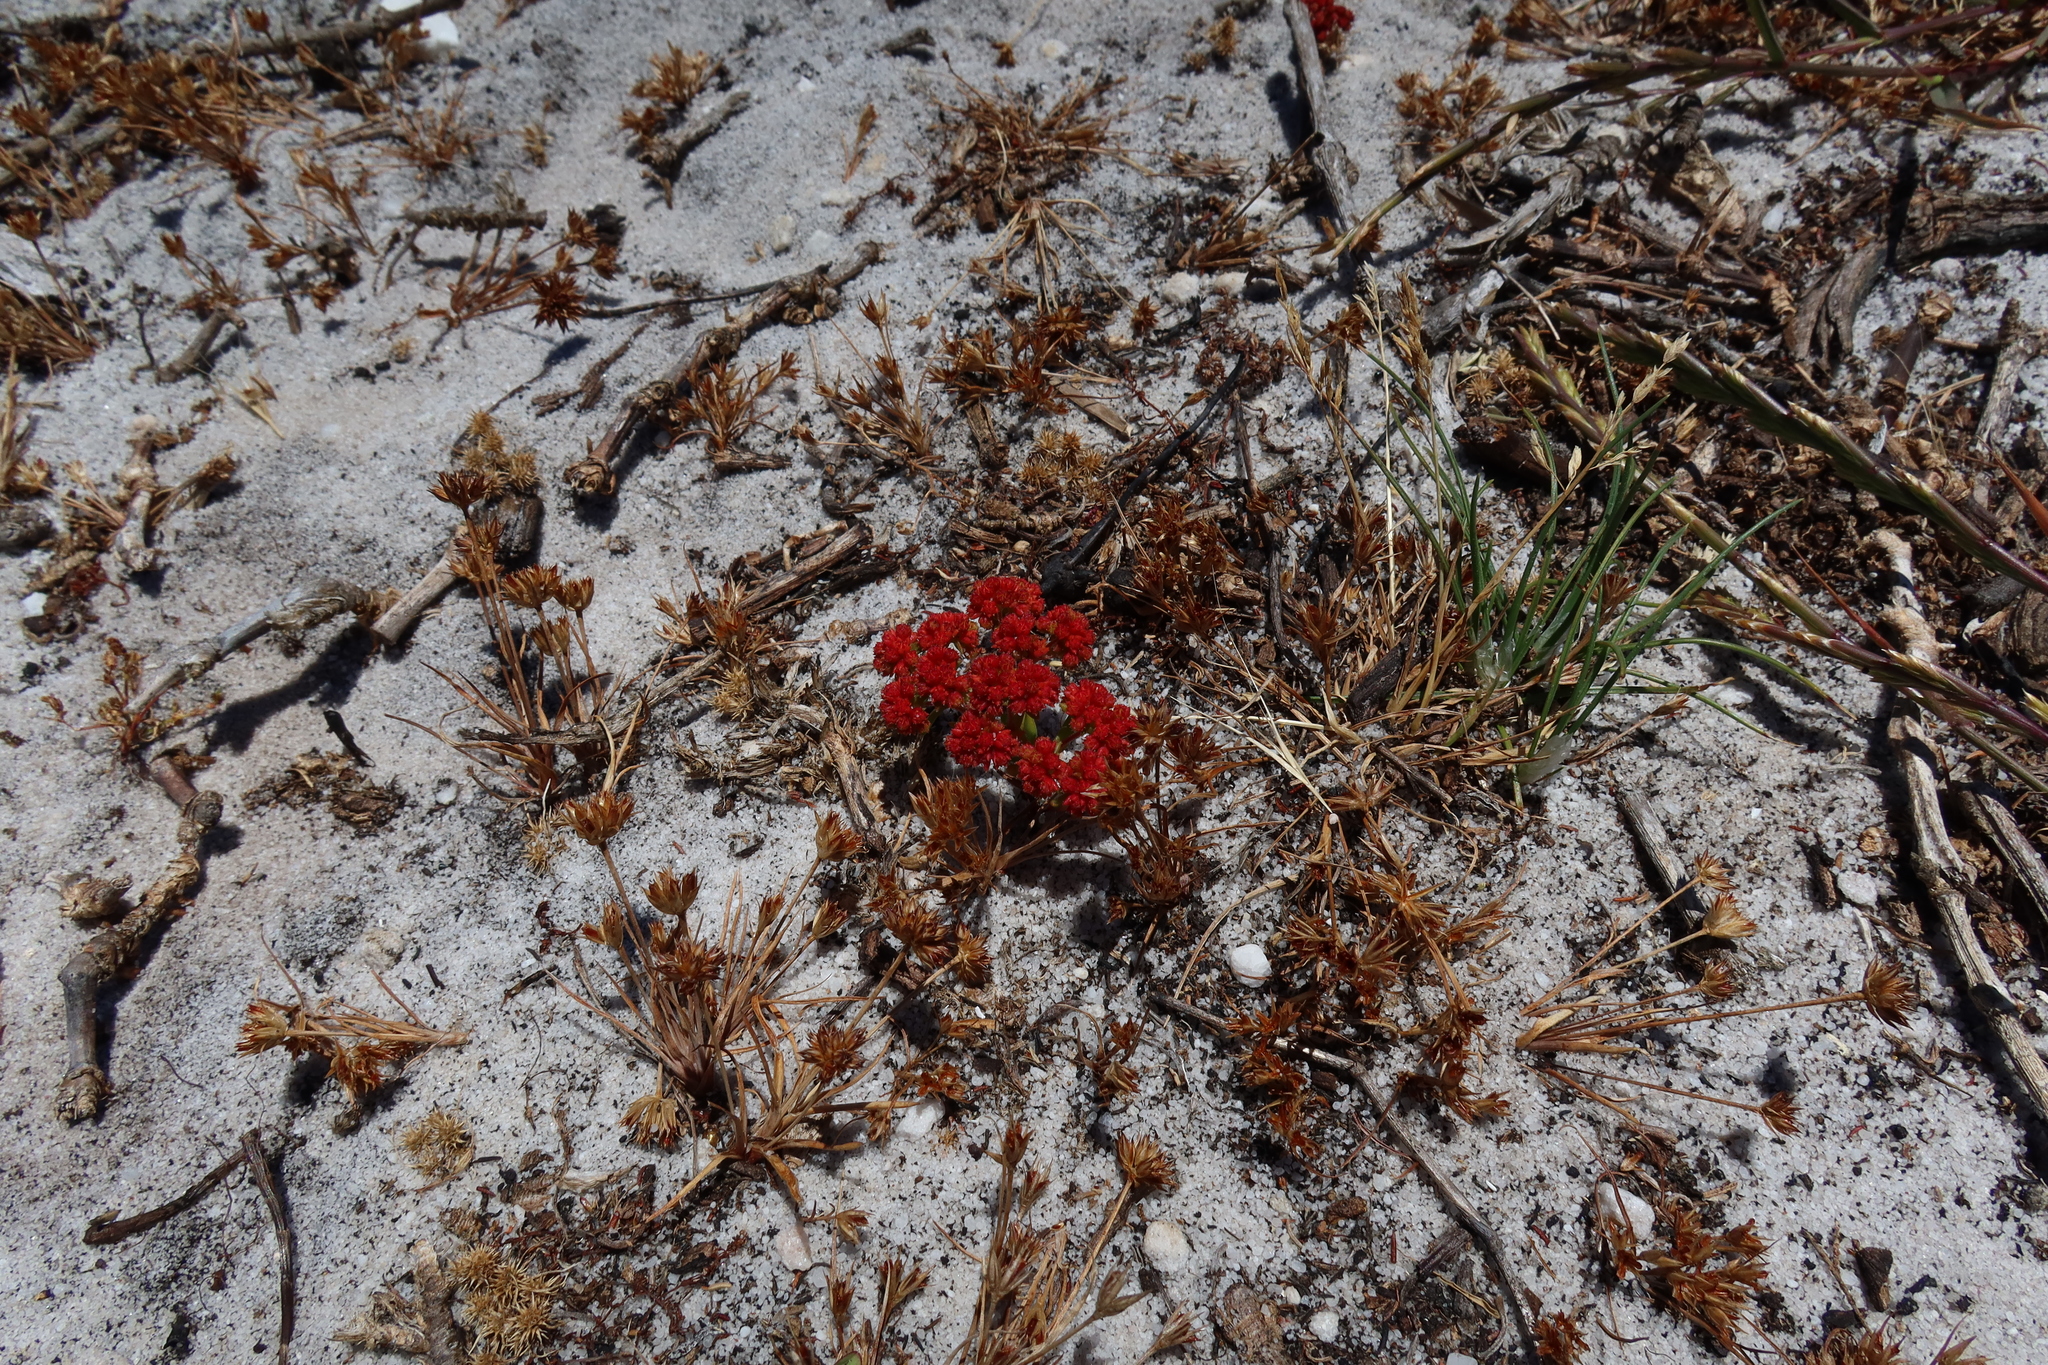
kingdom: Plantae
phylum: Tracheophyta
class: Magnoliopsida
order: Saxifragales
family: Crassulaceae
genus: Crassula
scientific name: Crassula glomerata
